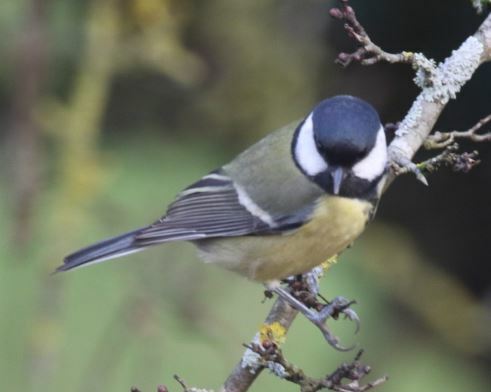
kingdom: Animalia
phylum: Chordata
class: Aves
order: Passeriformes
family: Paridae
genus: Parus
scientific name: Parus major
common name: Great tit
